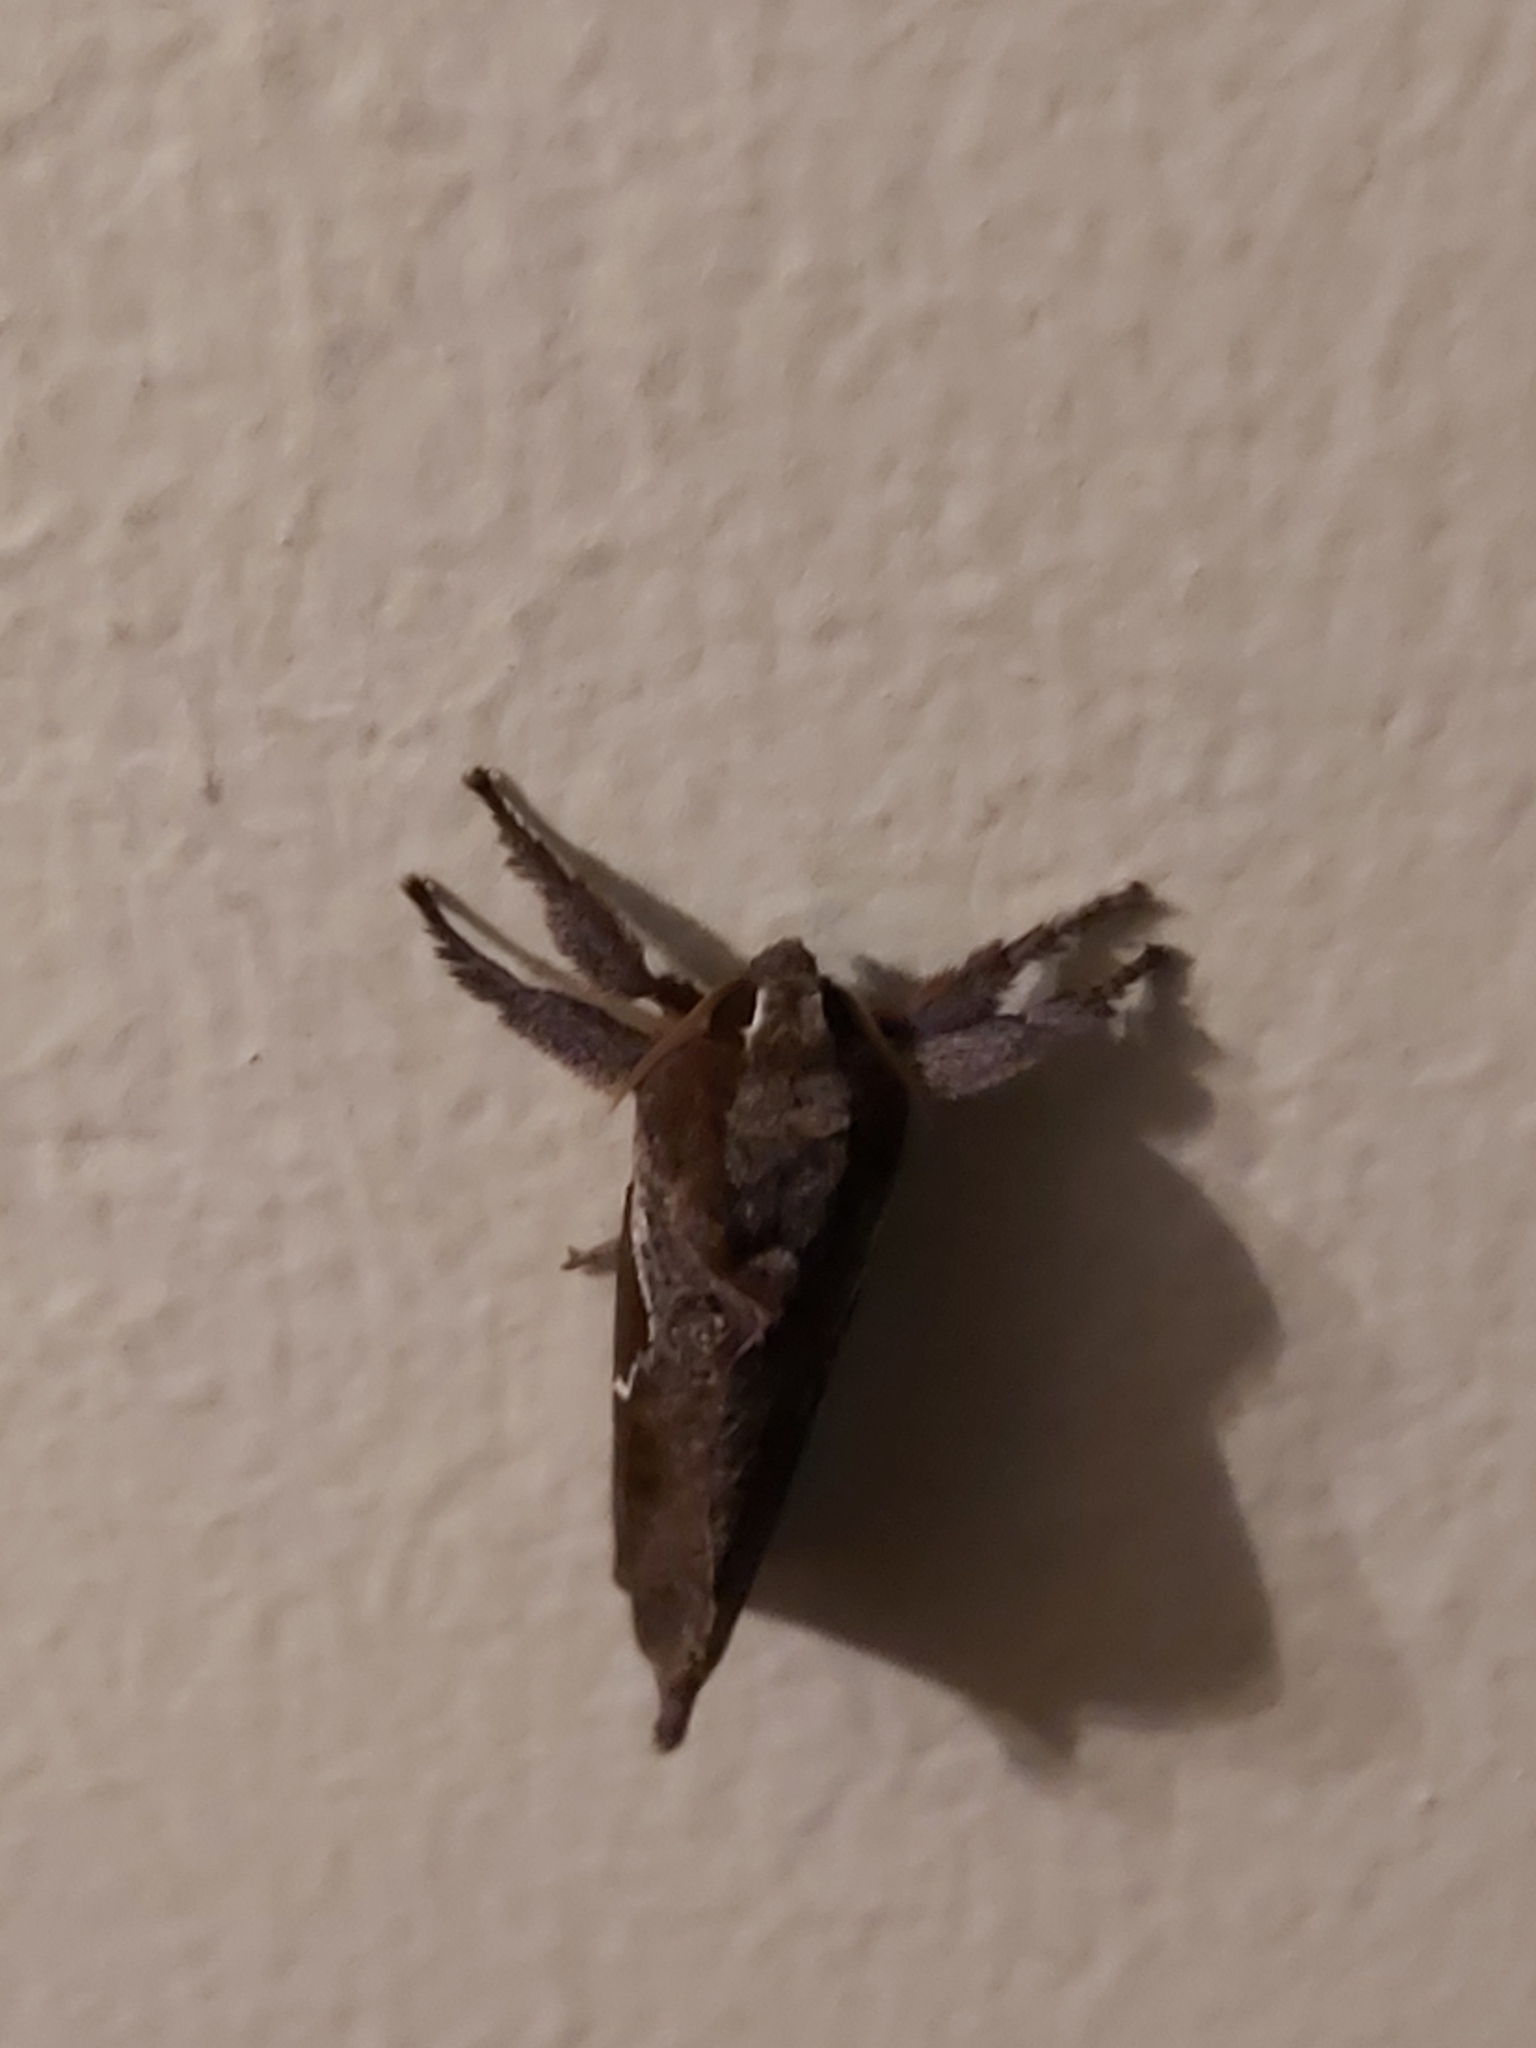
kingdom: Animalia
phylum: Arthropoda
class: Insecta
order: Lepidoptera
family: Hepialidae
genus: Elhamma
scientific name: Elhamma australasiae
